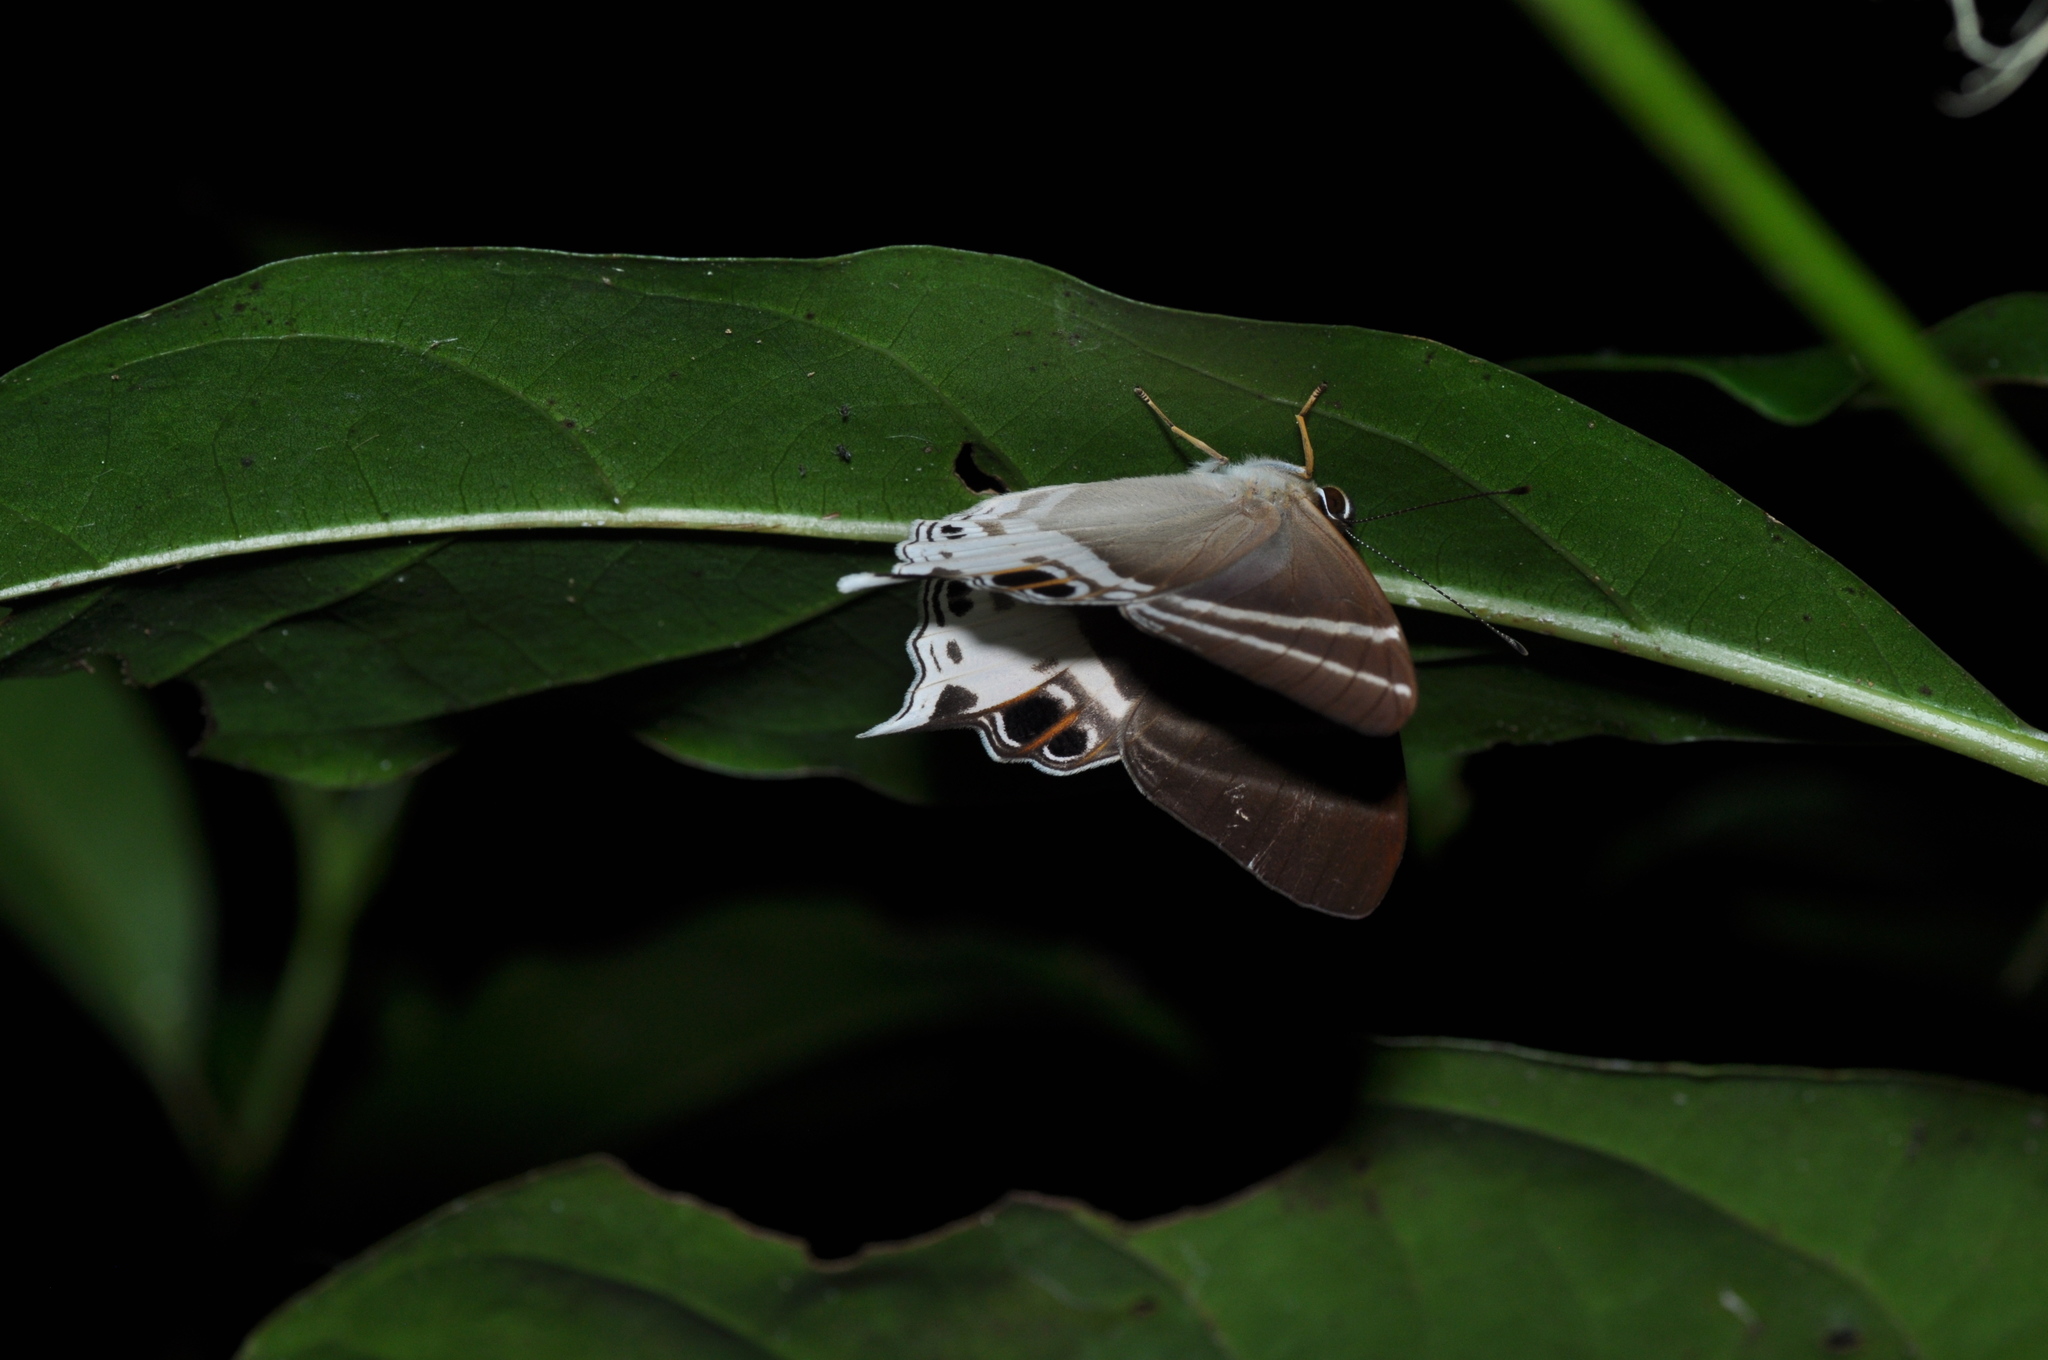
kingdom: Animalia
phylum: Arthropoda
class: Insecta
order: Lepidoptera
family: Riodinidae
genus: Archigenes
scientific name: Archigenes aita
